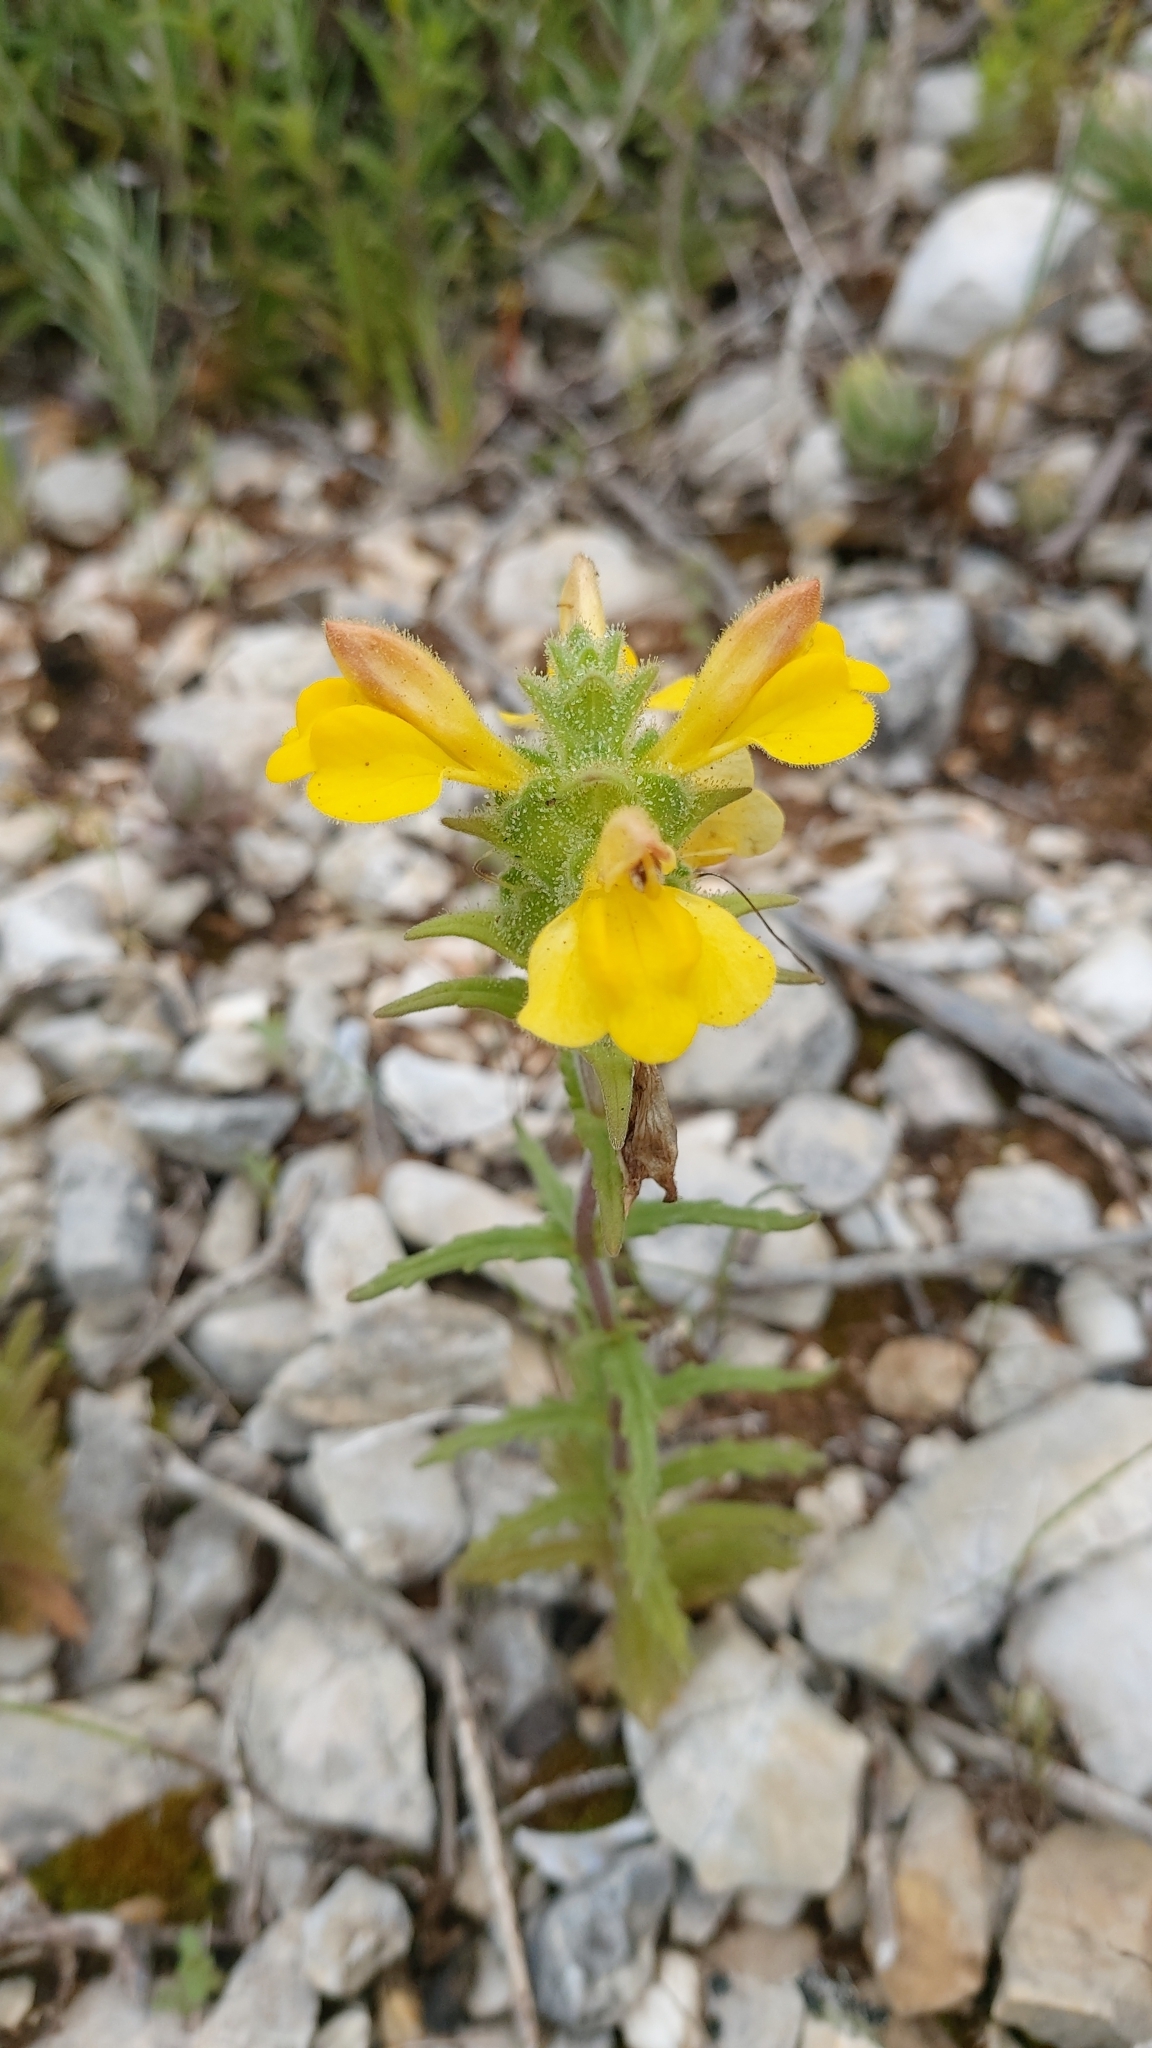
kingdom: Plantae
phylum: Tracheophyta
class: Magnoliopsida
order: Lamiales
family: Orobanchaceae
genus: Bellardia
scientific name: Bellardia trixago
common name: Mediterranean lineseed
